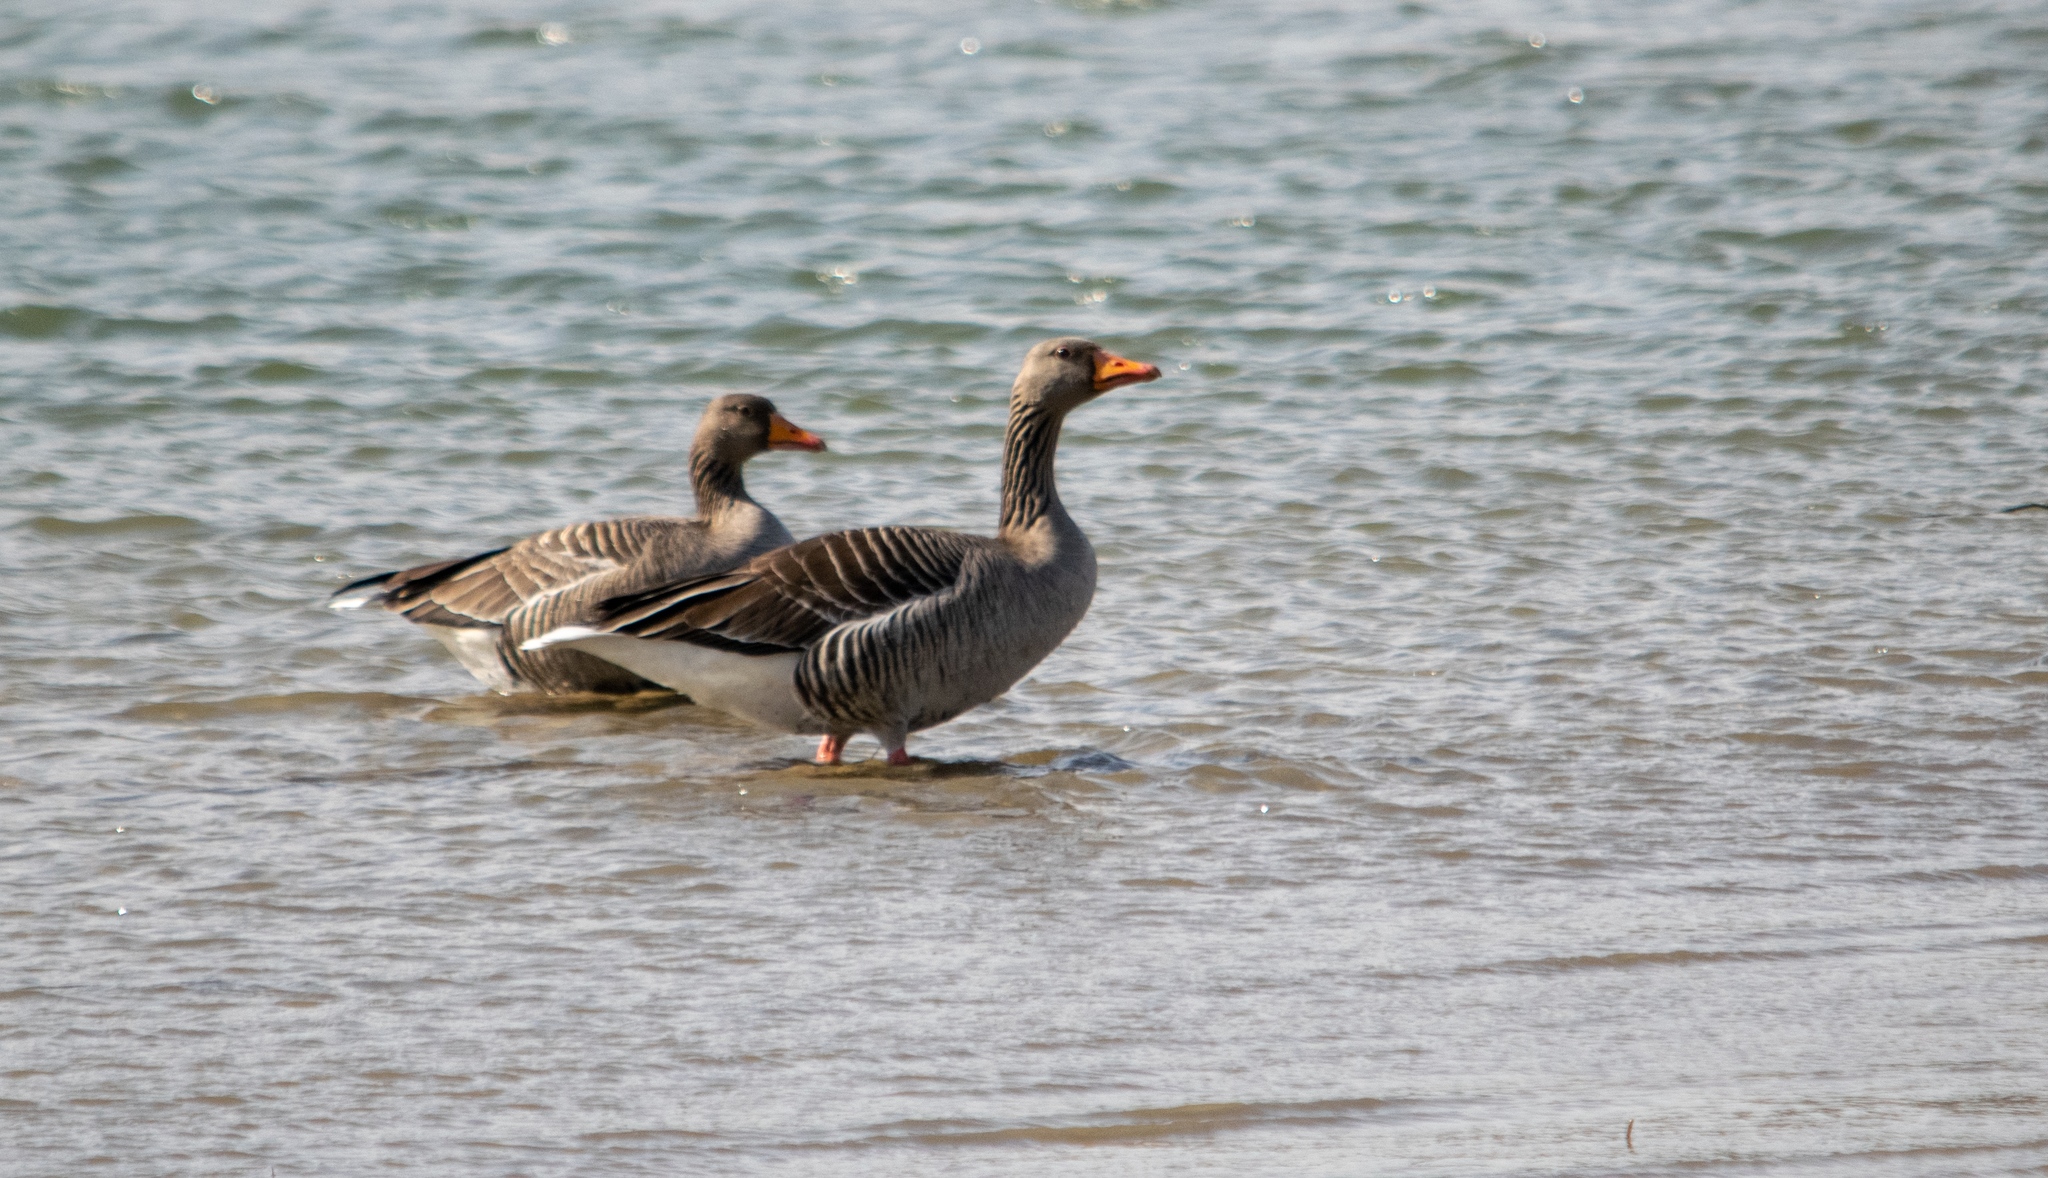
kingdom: Animalia
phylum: Chordata
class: Aves
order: Anseriformes
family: Anatidae
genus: Anser
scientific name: Anser anser
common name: Greylag goose
